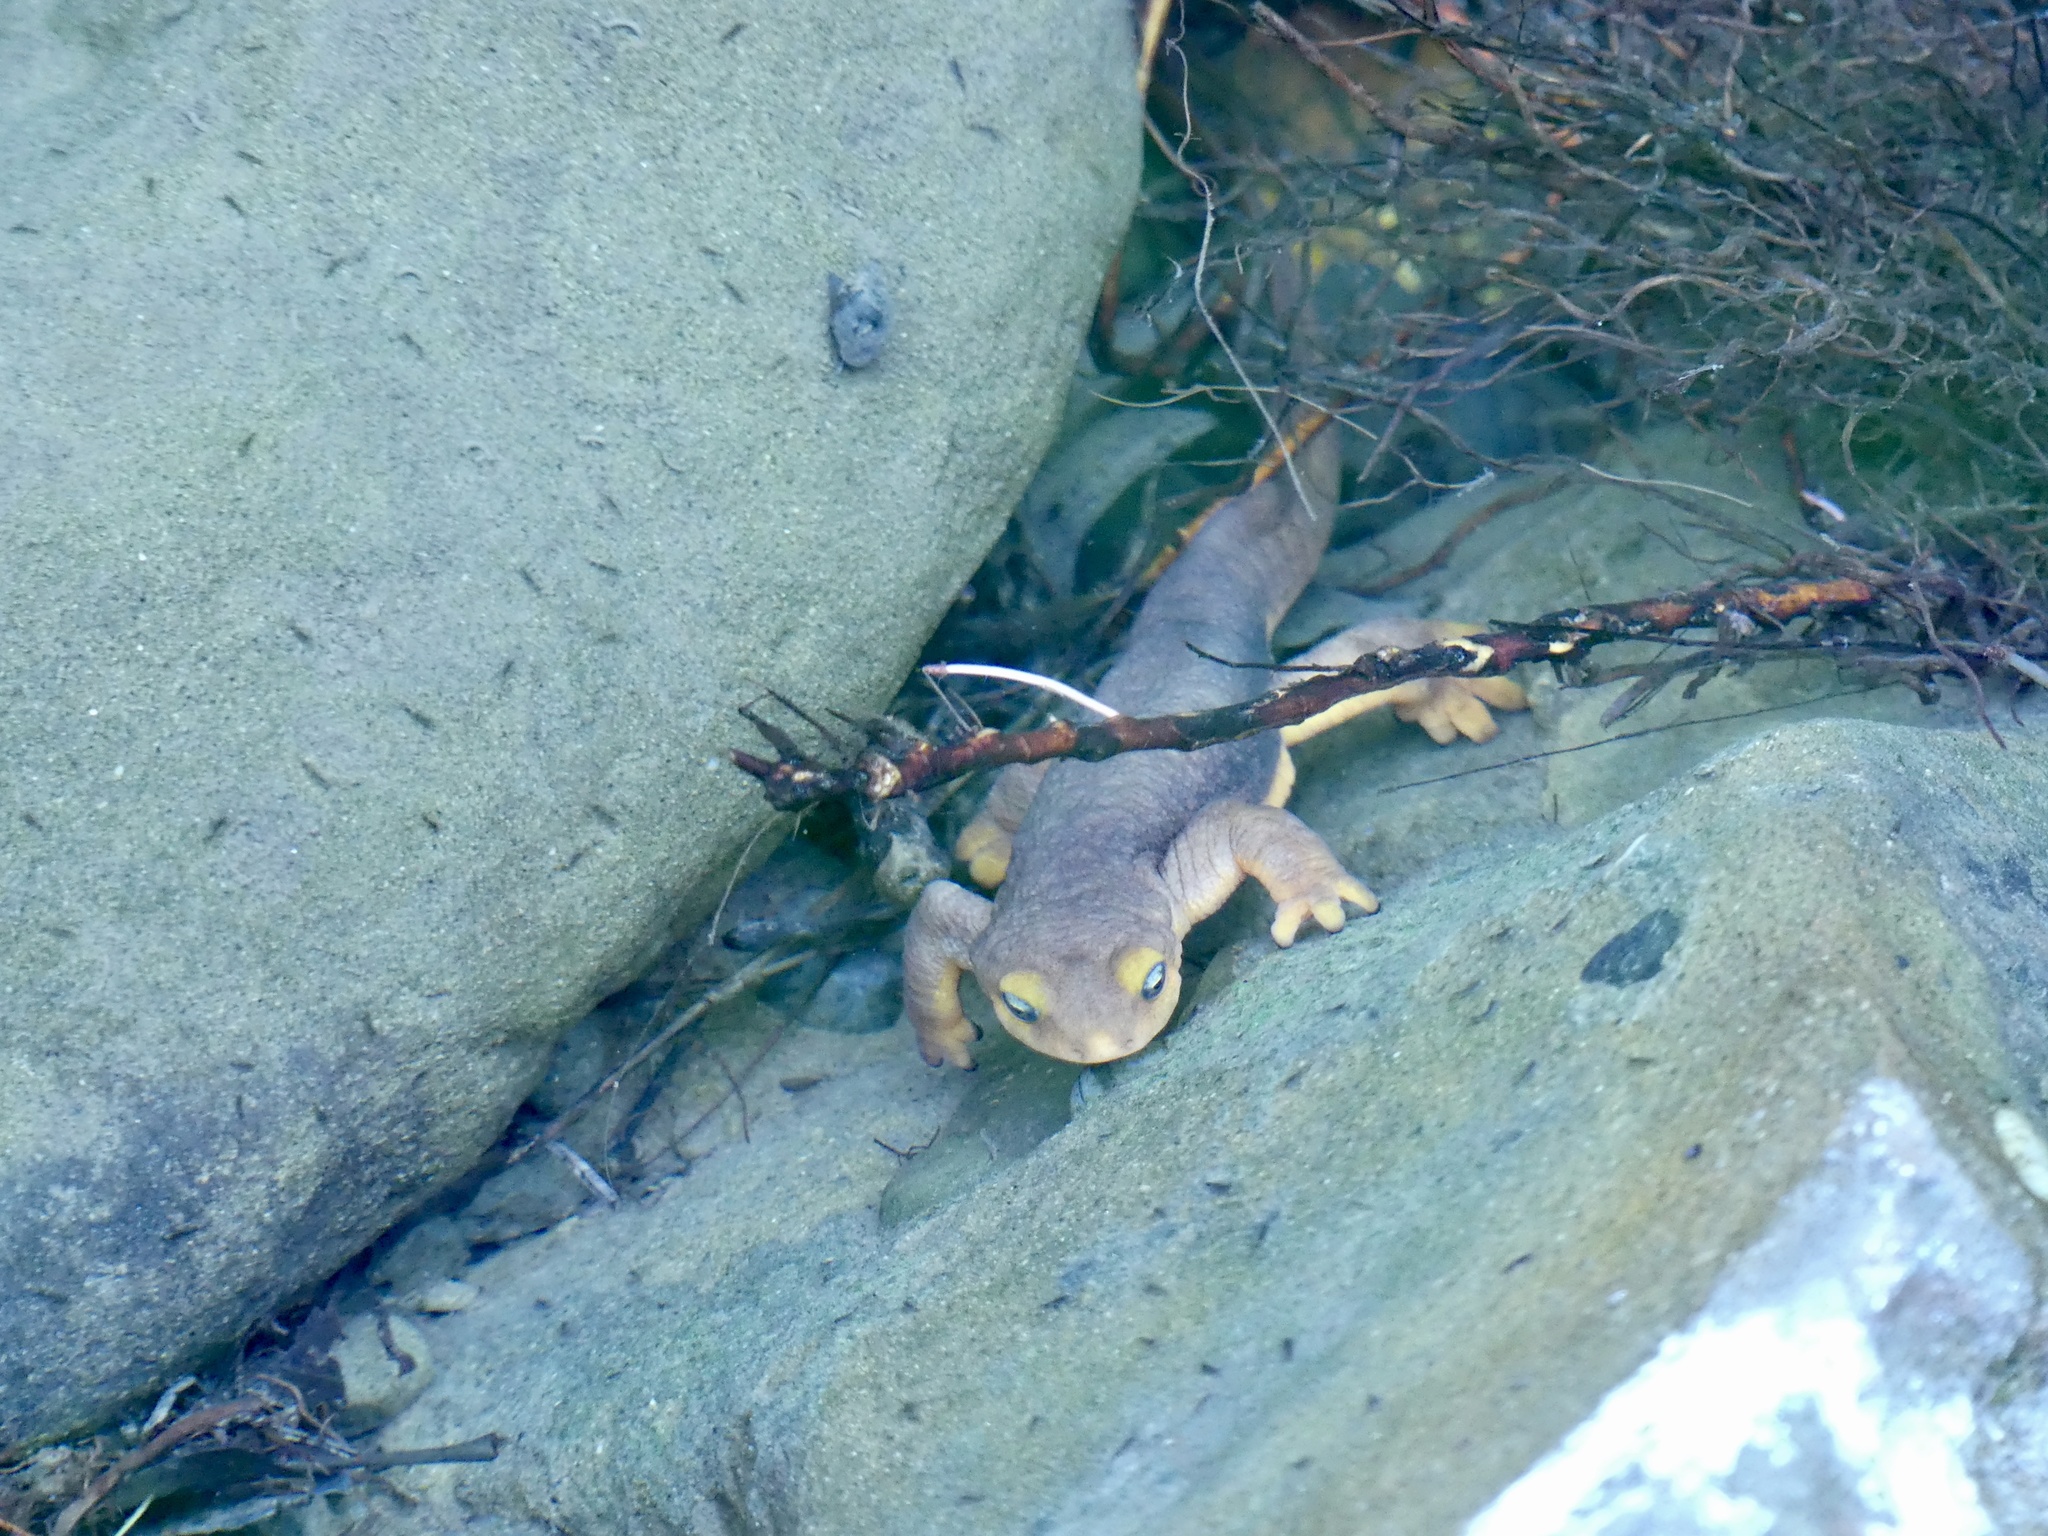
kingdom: Animalia
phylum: Chordata
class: Amphibia
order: Caudata
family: Salamandridae
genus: Taricha
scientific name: Taricha torosa
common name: California newt
